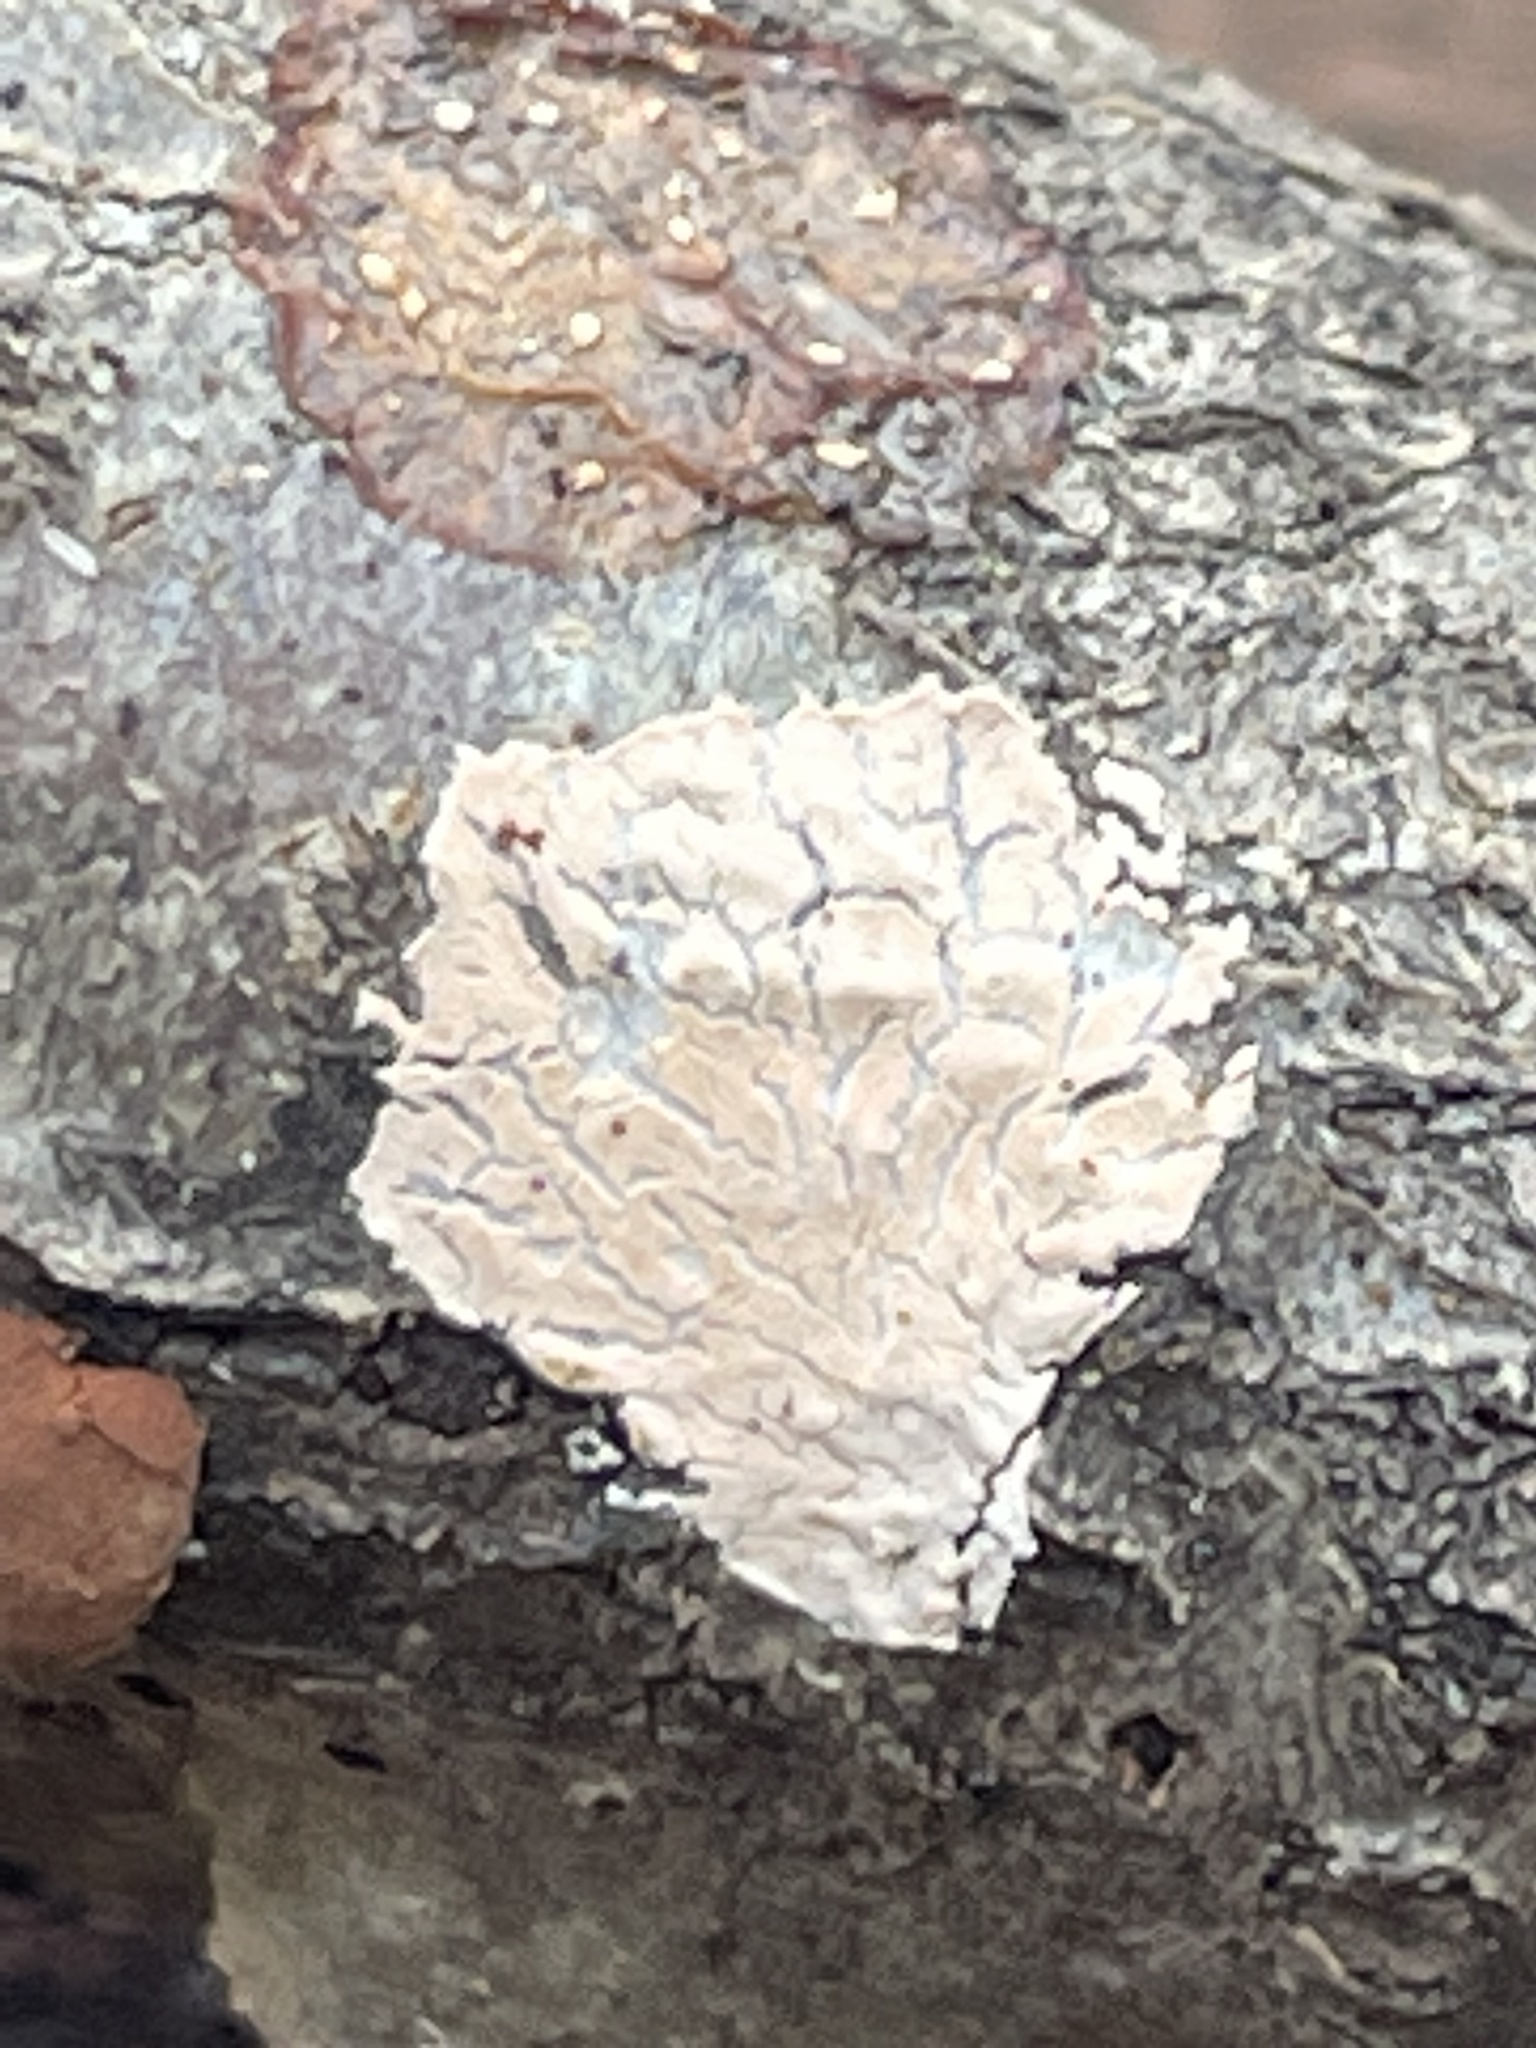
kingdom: Fungi
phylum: Basidiomycota
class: Agaricomycetes
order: Russulales
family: Stereaceae
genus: Xylobolus
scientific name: Xylobolus frustulatus
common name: Ceramic parchment
